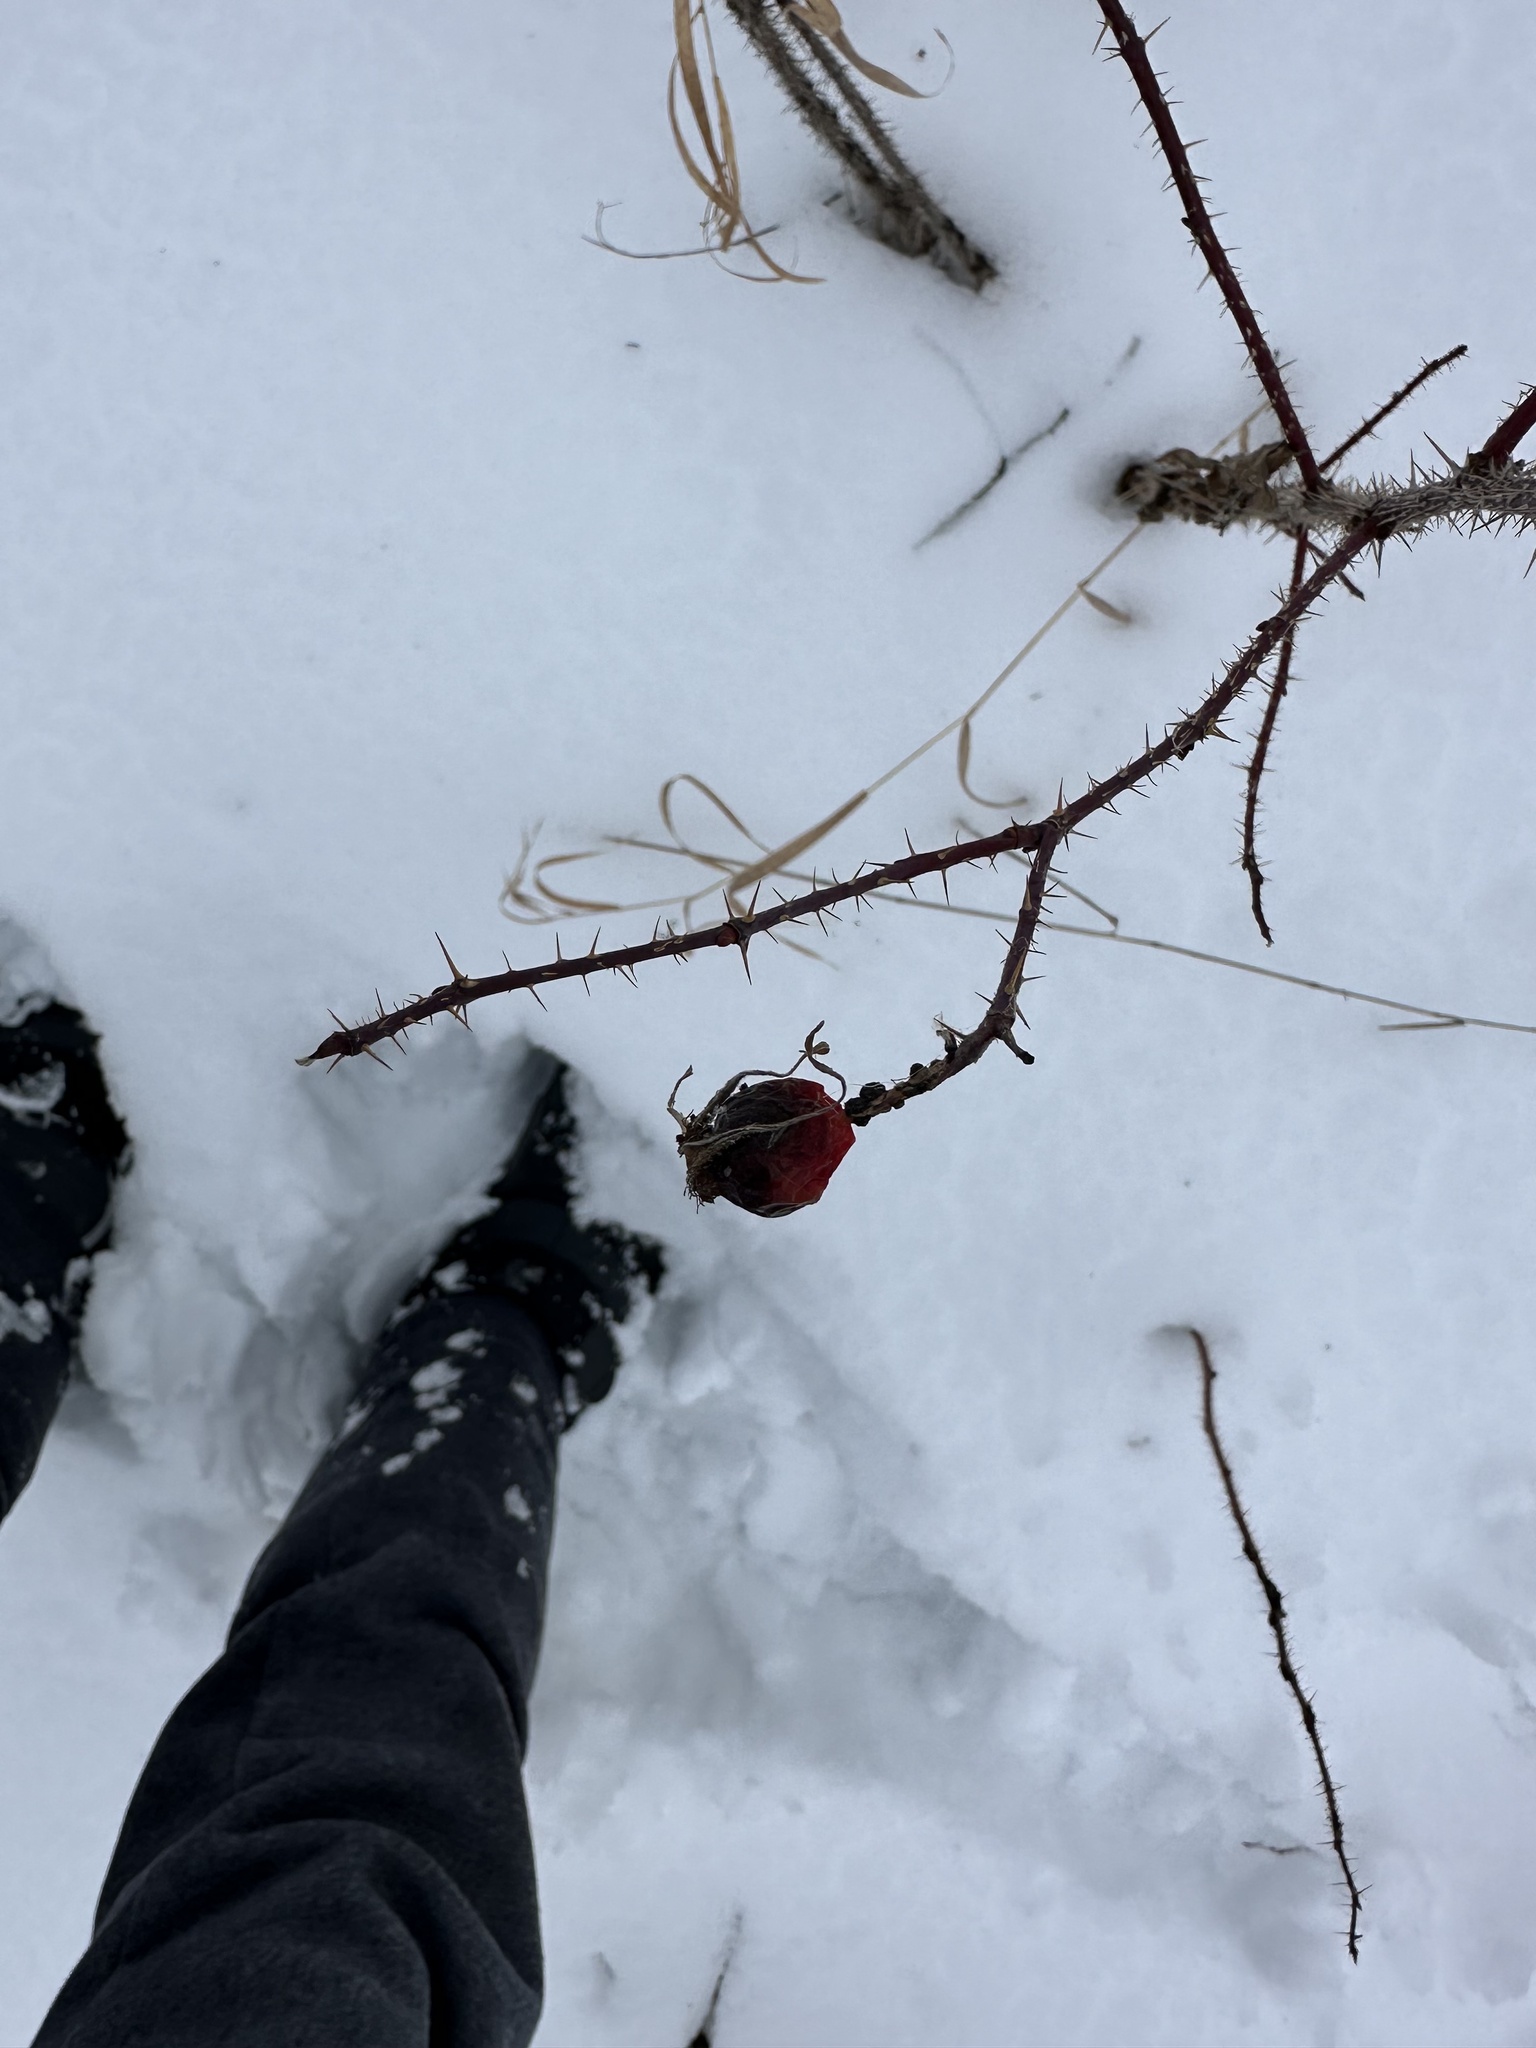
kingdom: Plantae
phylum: Tracheophyta
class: Magnoliopsida
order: Rosales
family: Rosaceae
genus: Rosa
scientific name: Rosa acicularis
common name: Prickly rose
